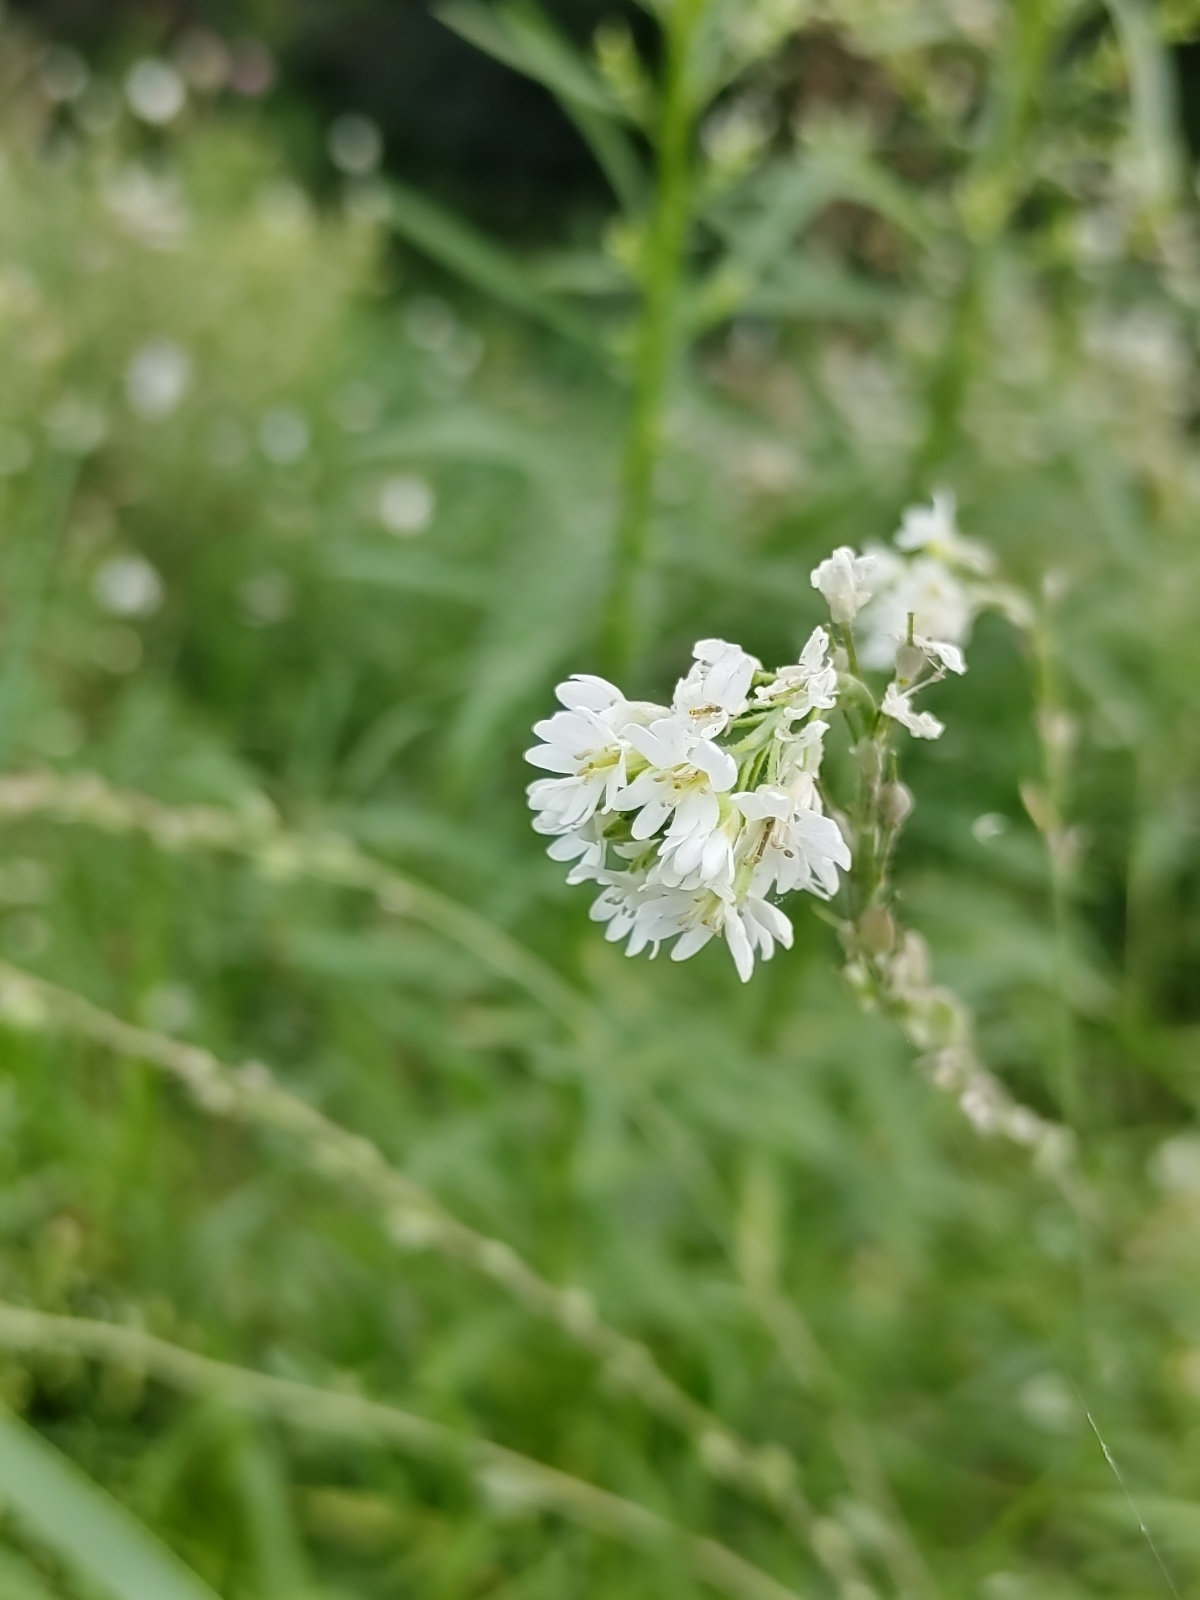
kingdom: Plantae
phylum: Tracheophyta
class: Magnoliopsida
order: Brassicales
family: Brassicaceae
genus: Berteroa
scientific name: Berteroa incana
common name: Hoary alison
